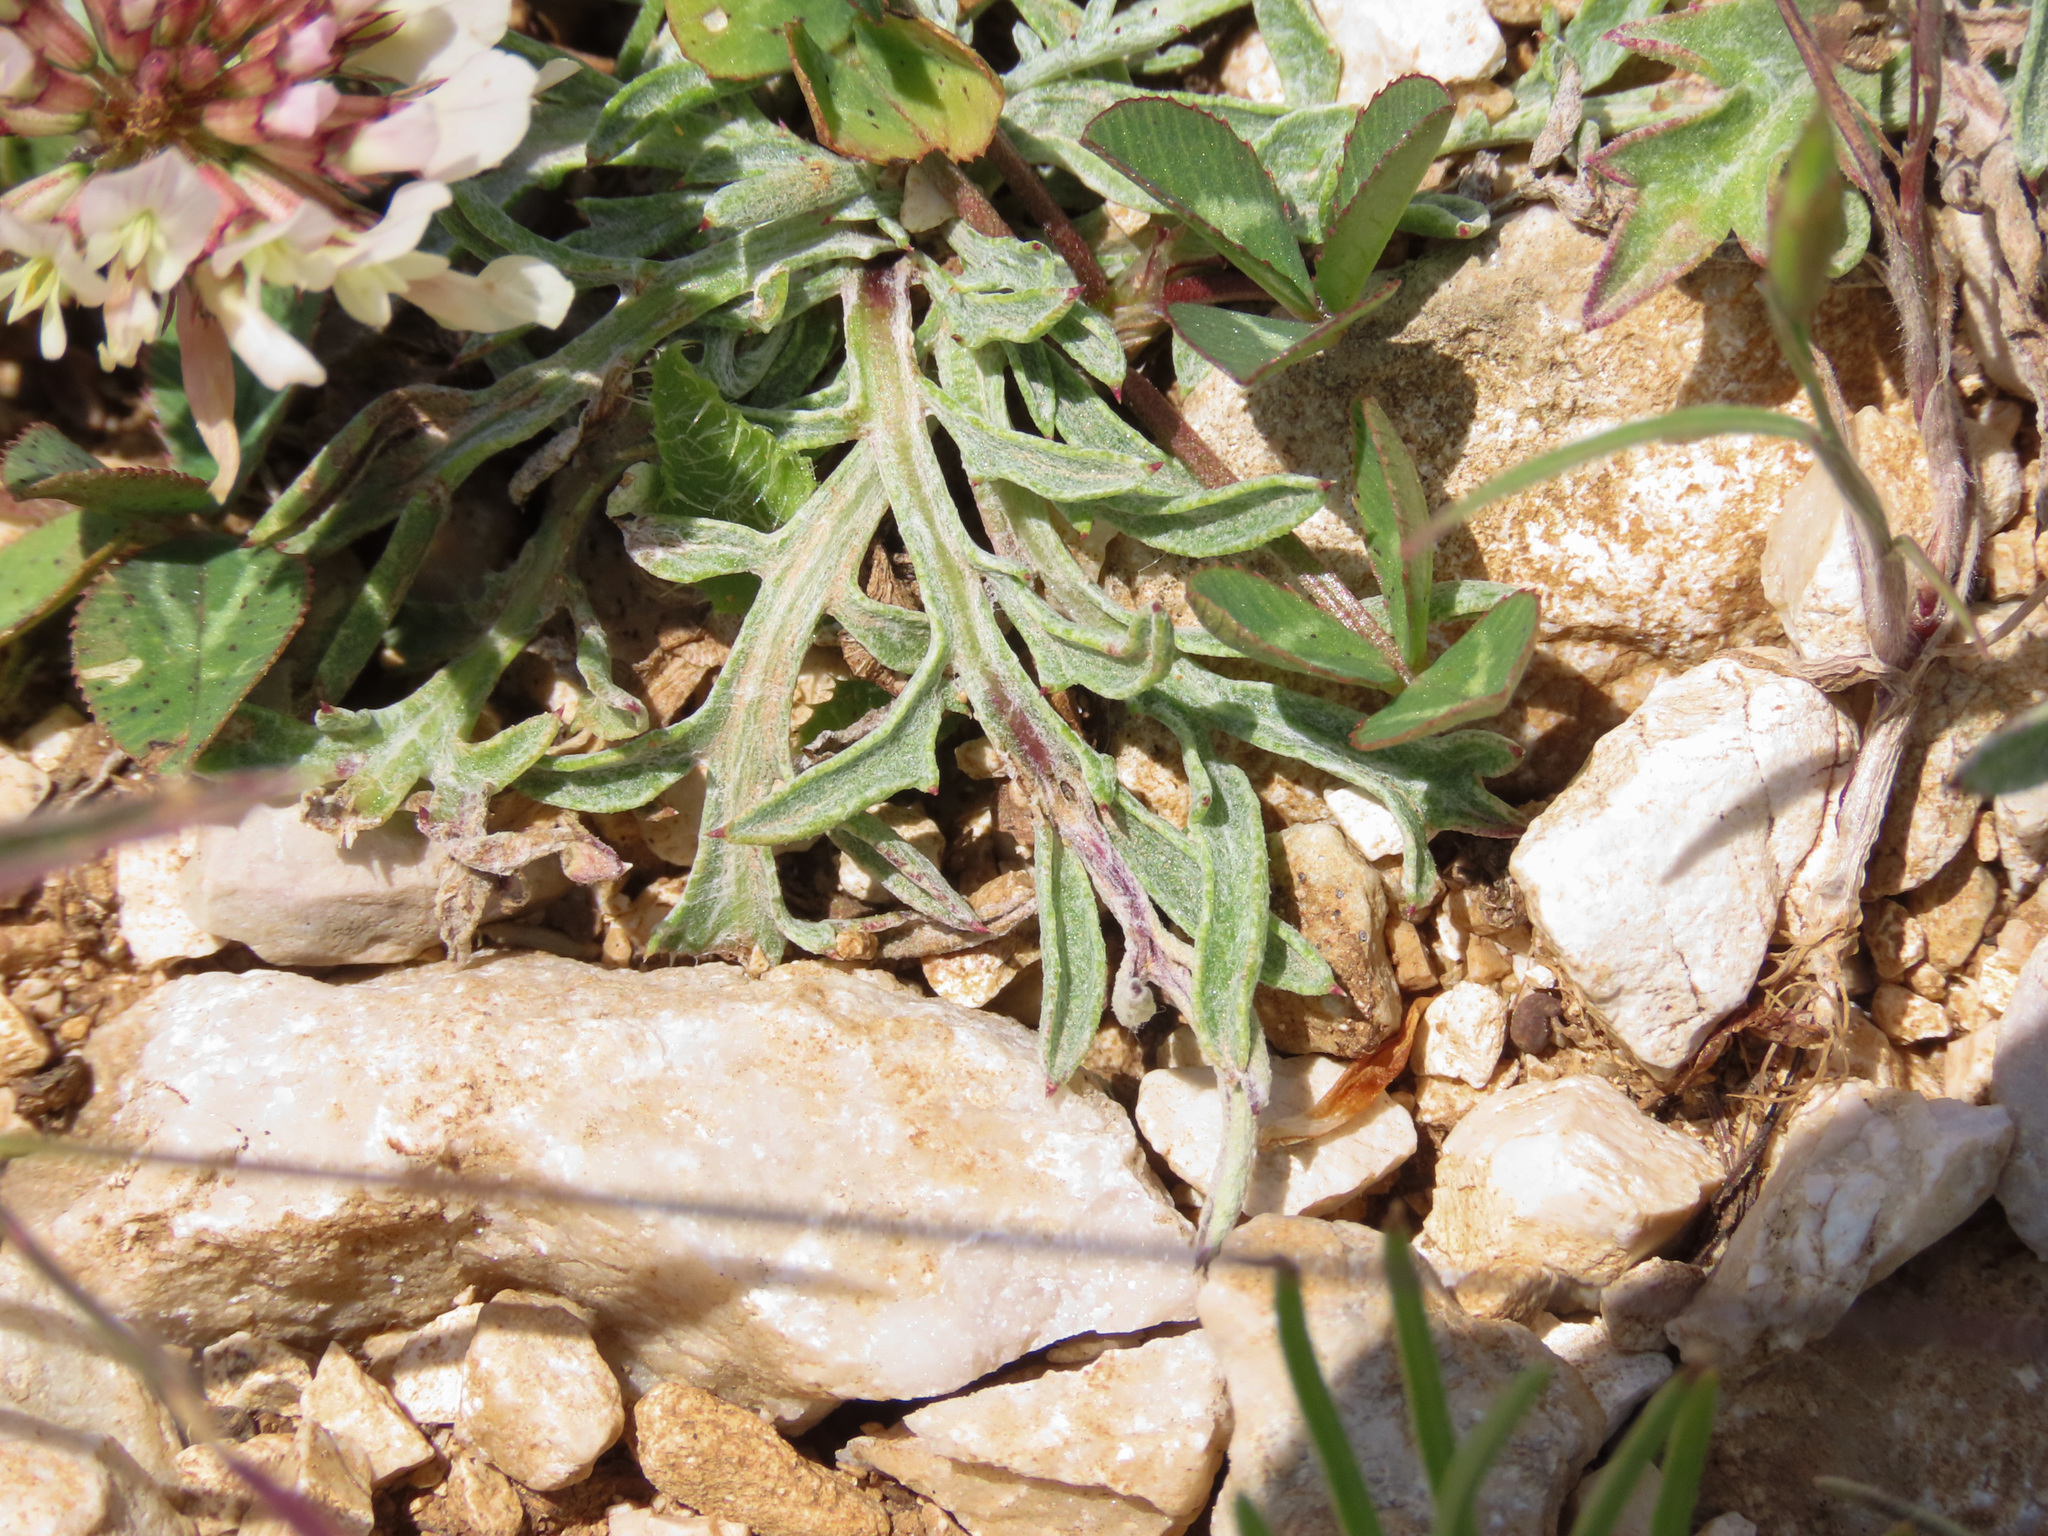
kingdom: Plantae
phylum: Tracheophyta
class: Magnoliopsida
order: Asterales
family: Asteraceae
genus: Centaurea
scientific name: Centaurea ambigua
